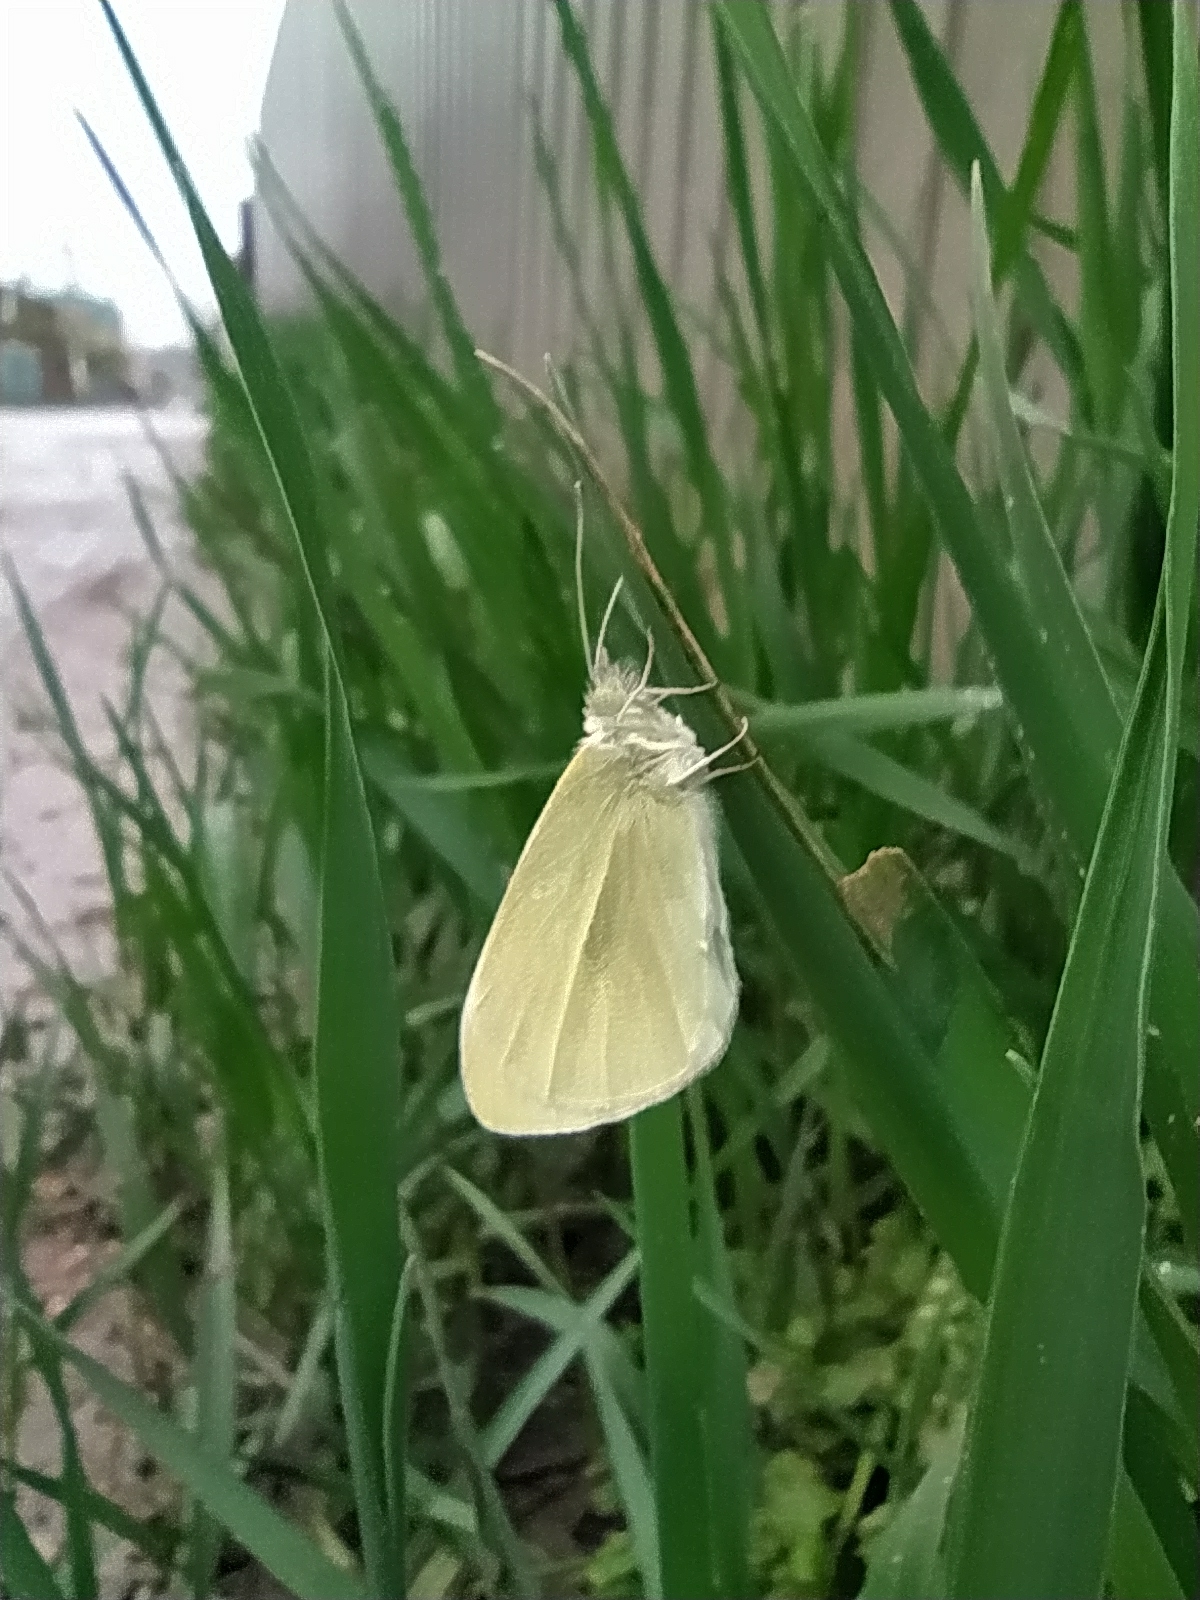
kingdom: Animalia
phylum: Arthropoda
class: Insecta
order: Lepidoptera
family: Pieridae
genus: Pieris
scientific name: Pieris rapae
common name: Small white
